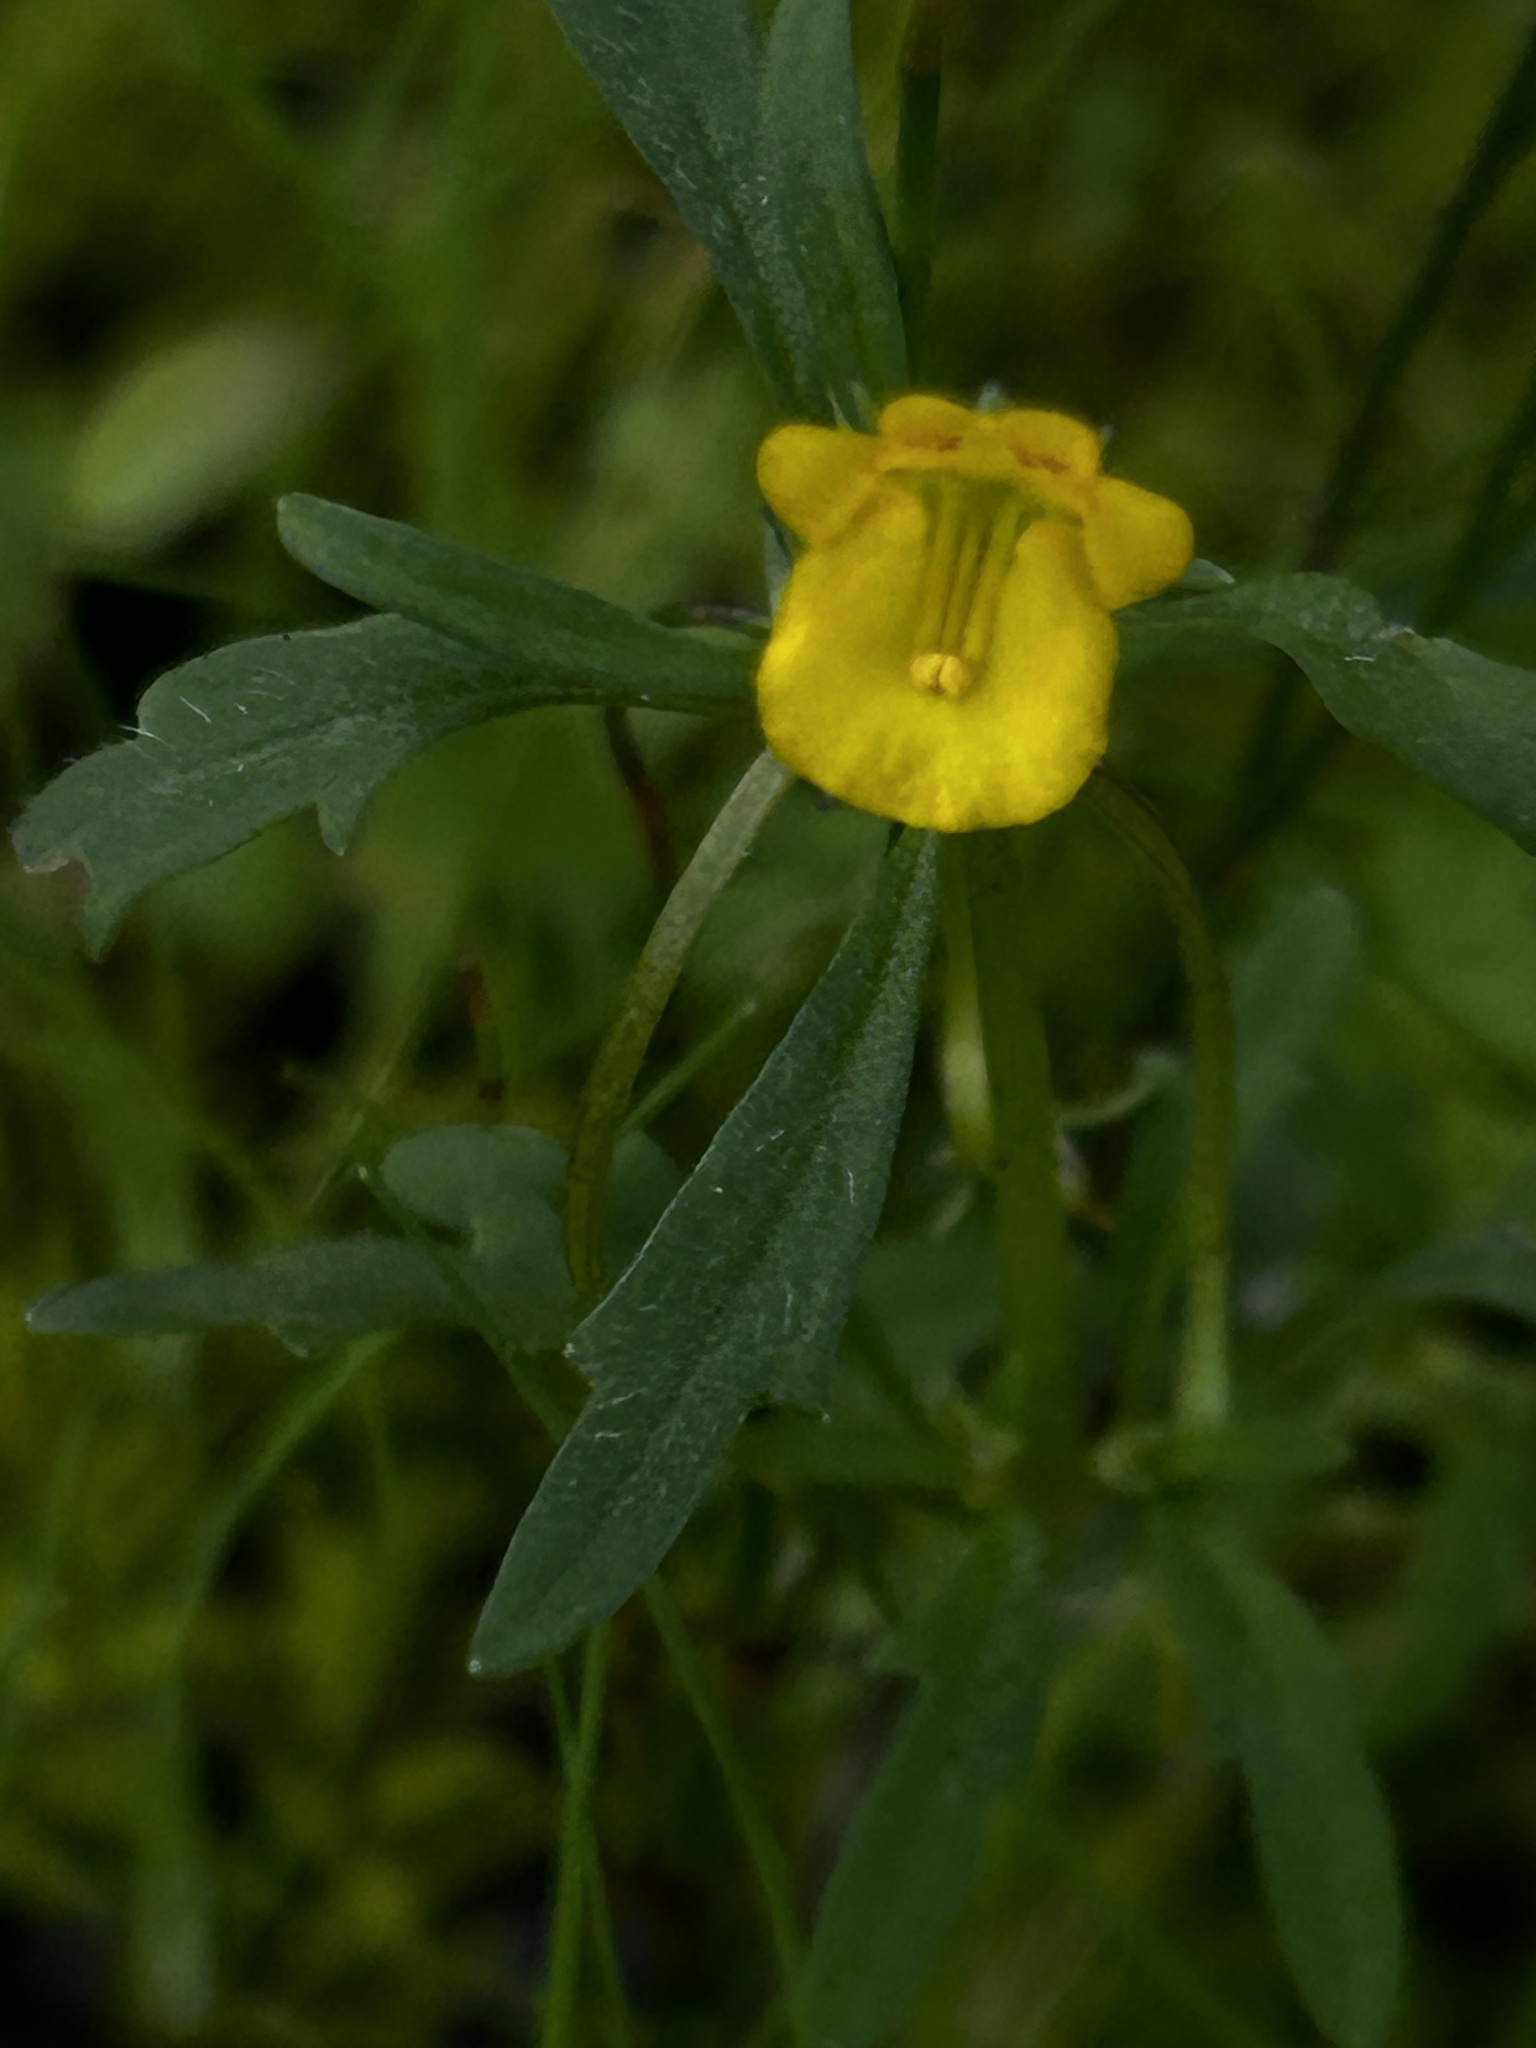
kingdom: Plantae
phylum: Tracheophyta
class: Magnoliopsida
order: Lamiales
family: Scrophulariaceae
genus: Hemimeris
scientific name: Hemimeris racemosa
